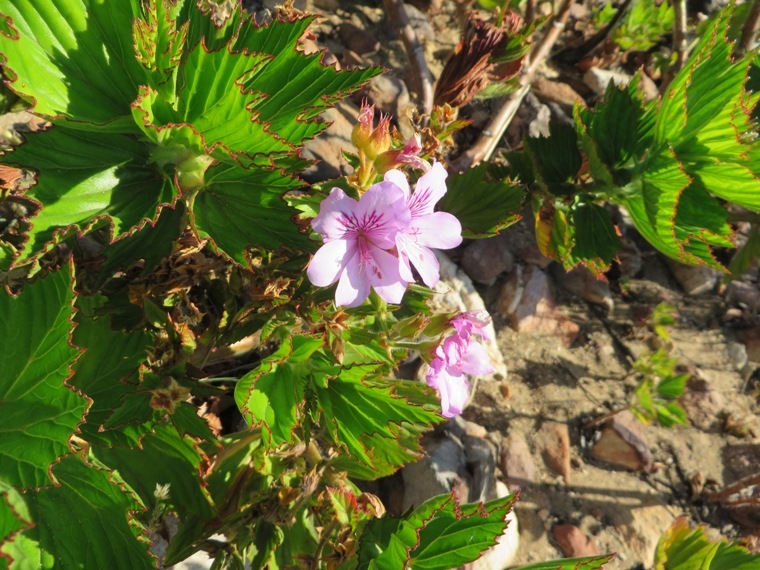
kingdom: Plantae
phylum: Tracheophyta
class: Magnoliopsida
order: Geraniales
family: Geraniaceae
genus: Pelargonium
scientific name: Pelargonium cucullatum
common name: Tree pelargonium
